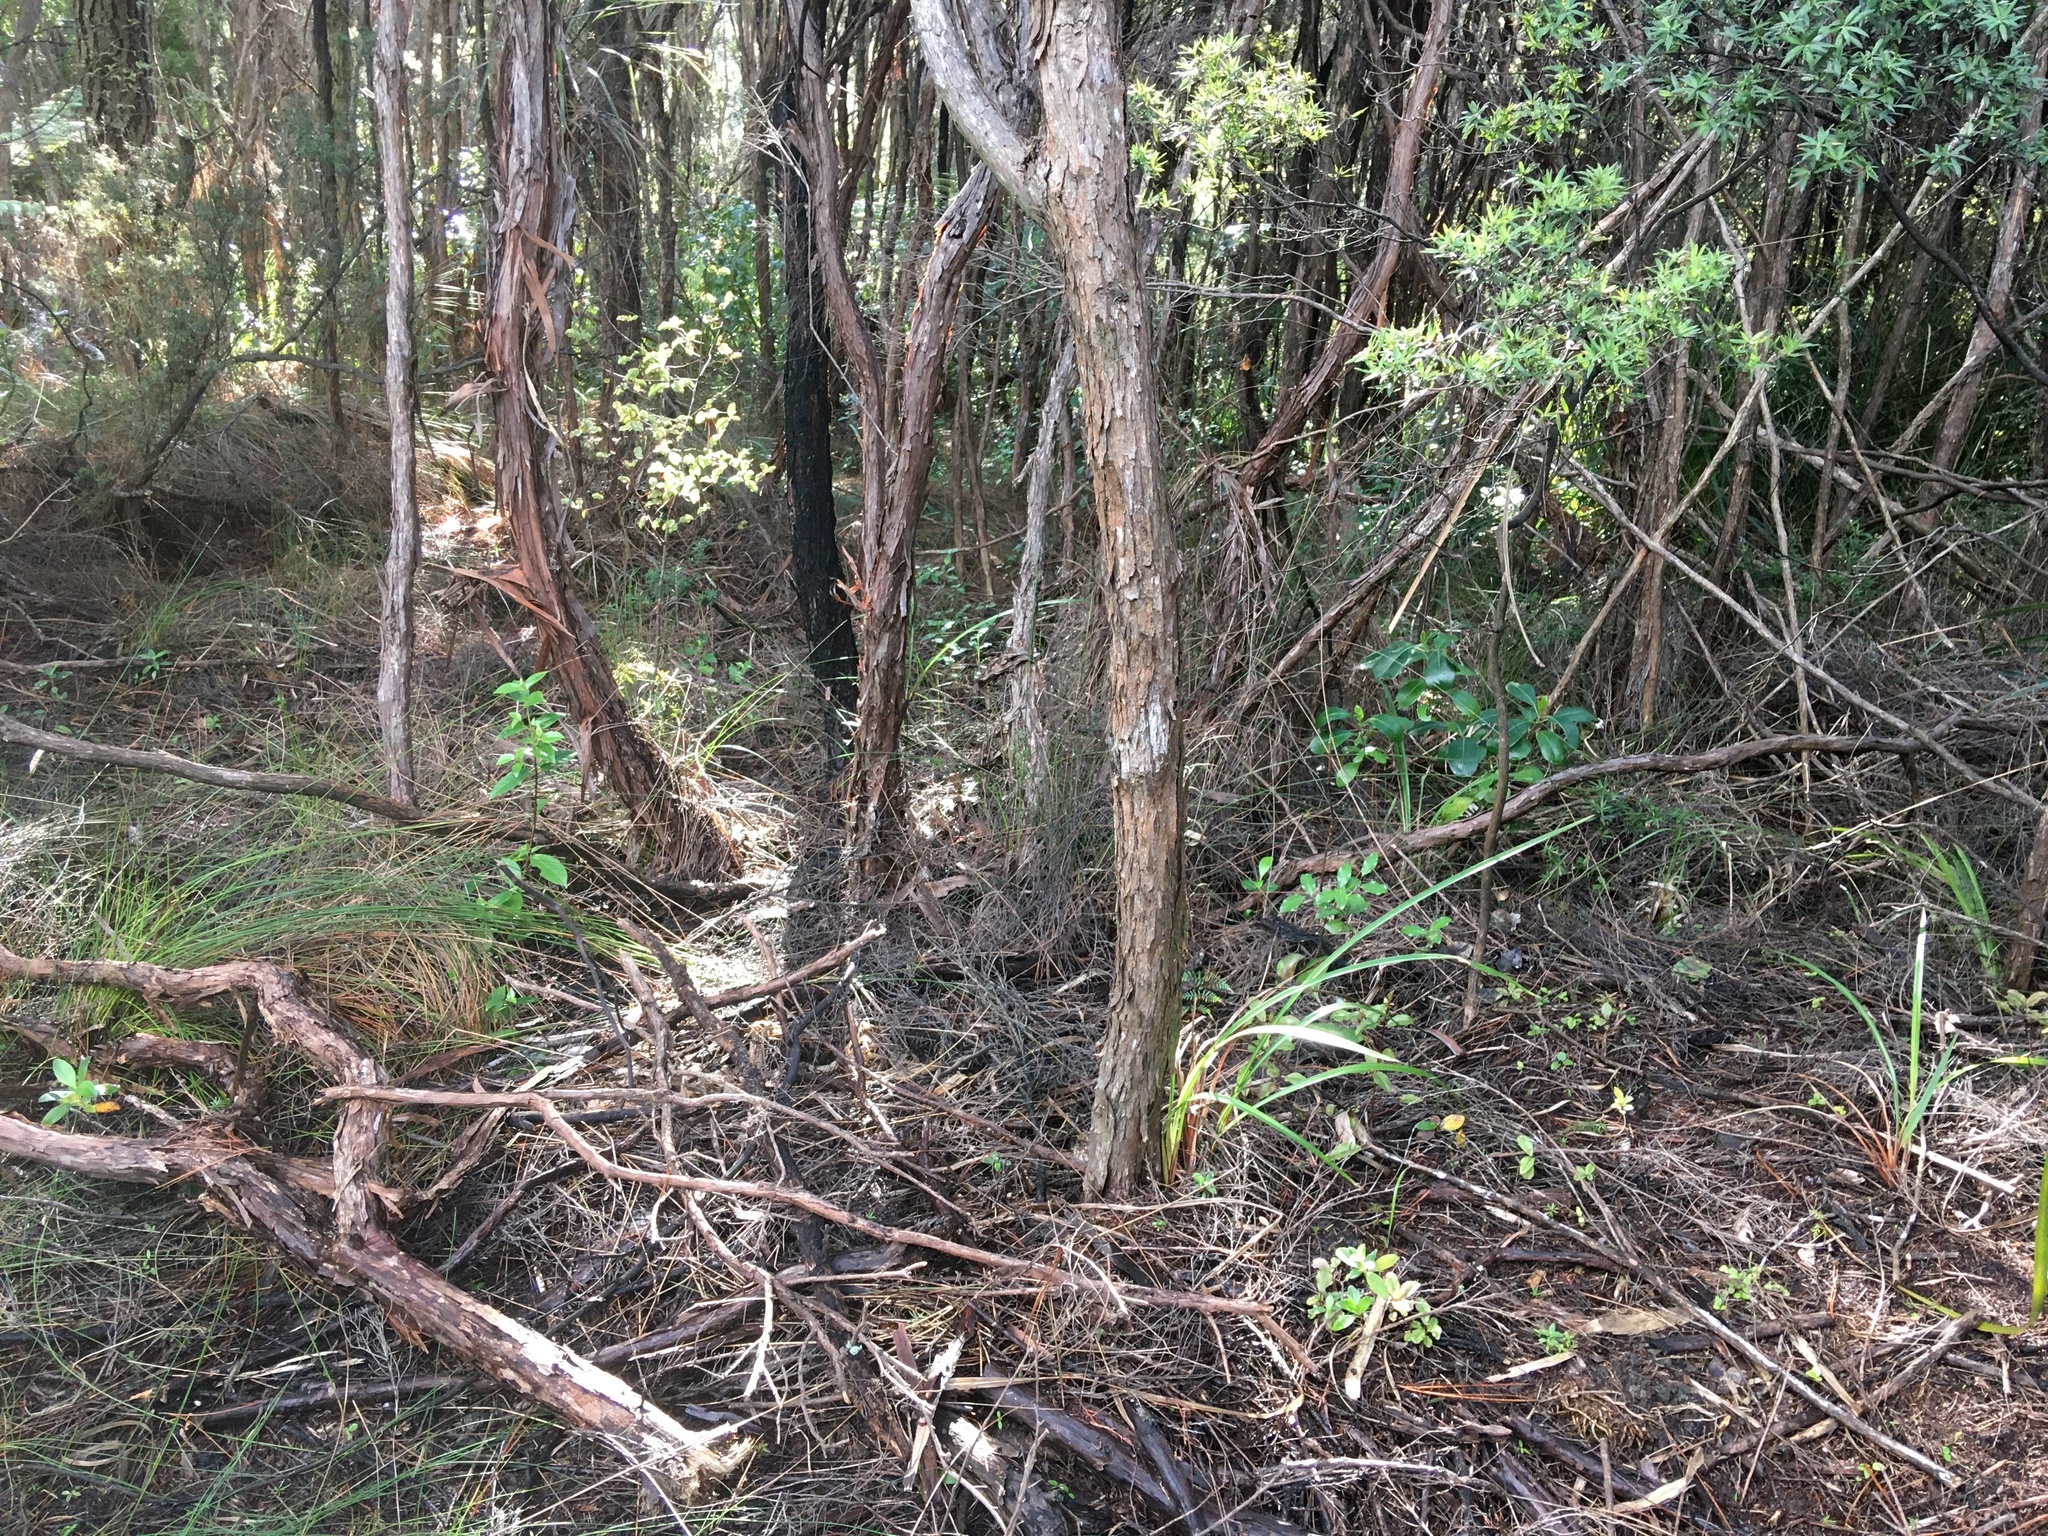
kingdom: Plantae
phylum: Tracheophyta
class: Liliopsida
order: Asparagales
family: Asphodelaceae
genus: Dianella
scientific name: Dianella nigra
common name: New zealand-blueberry
